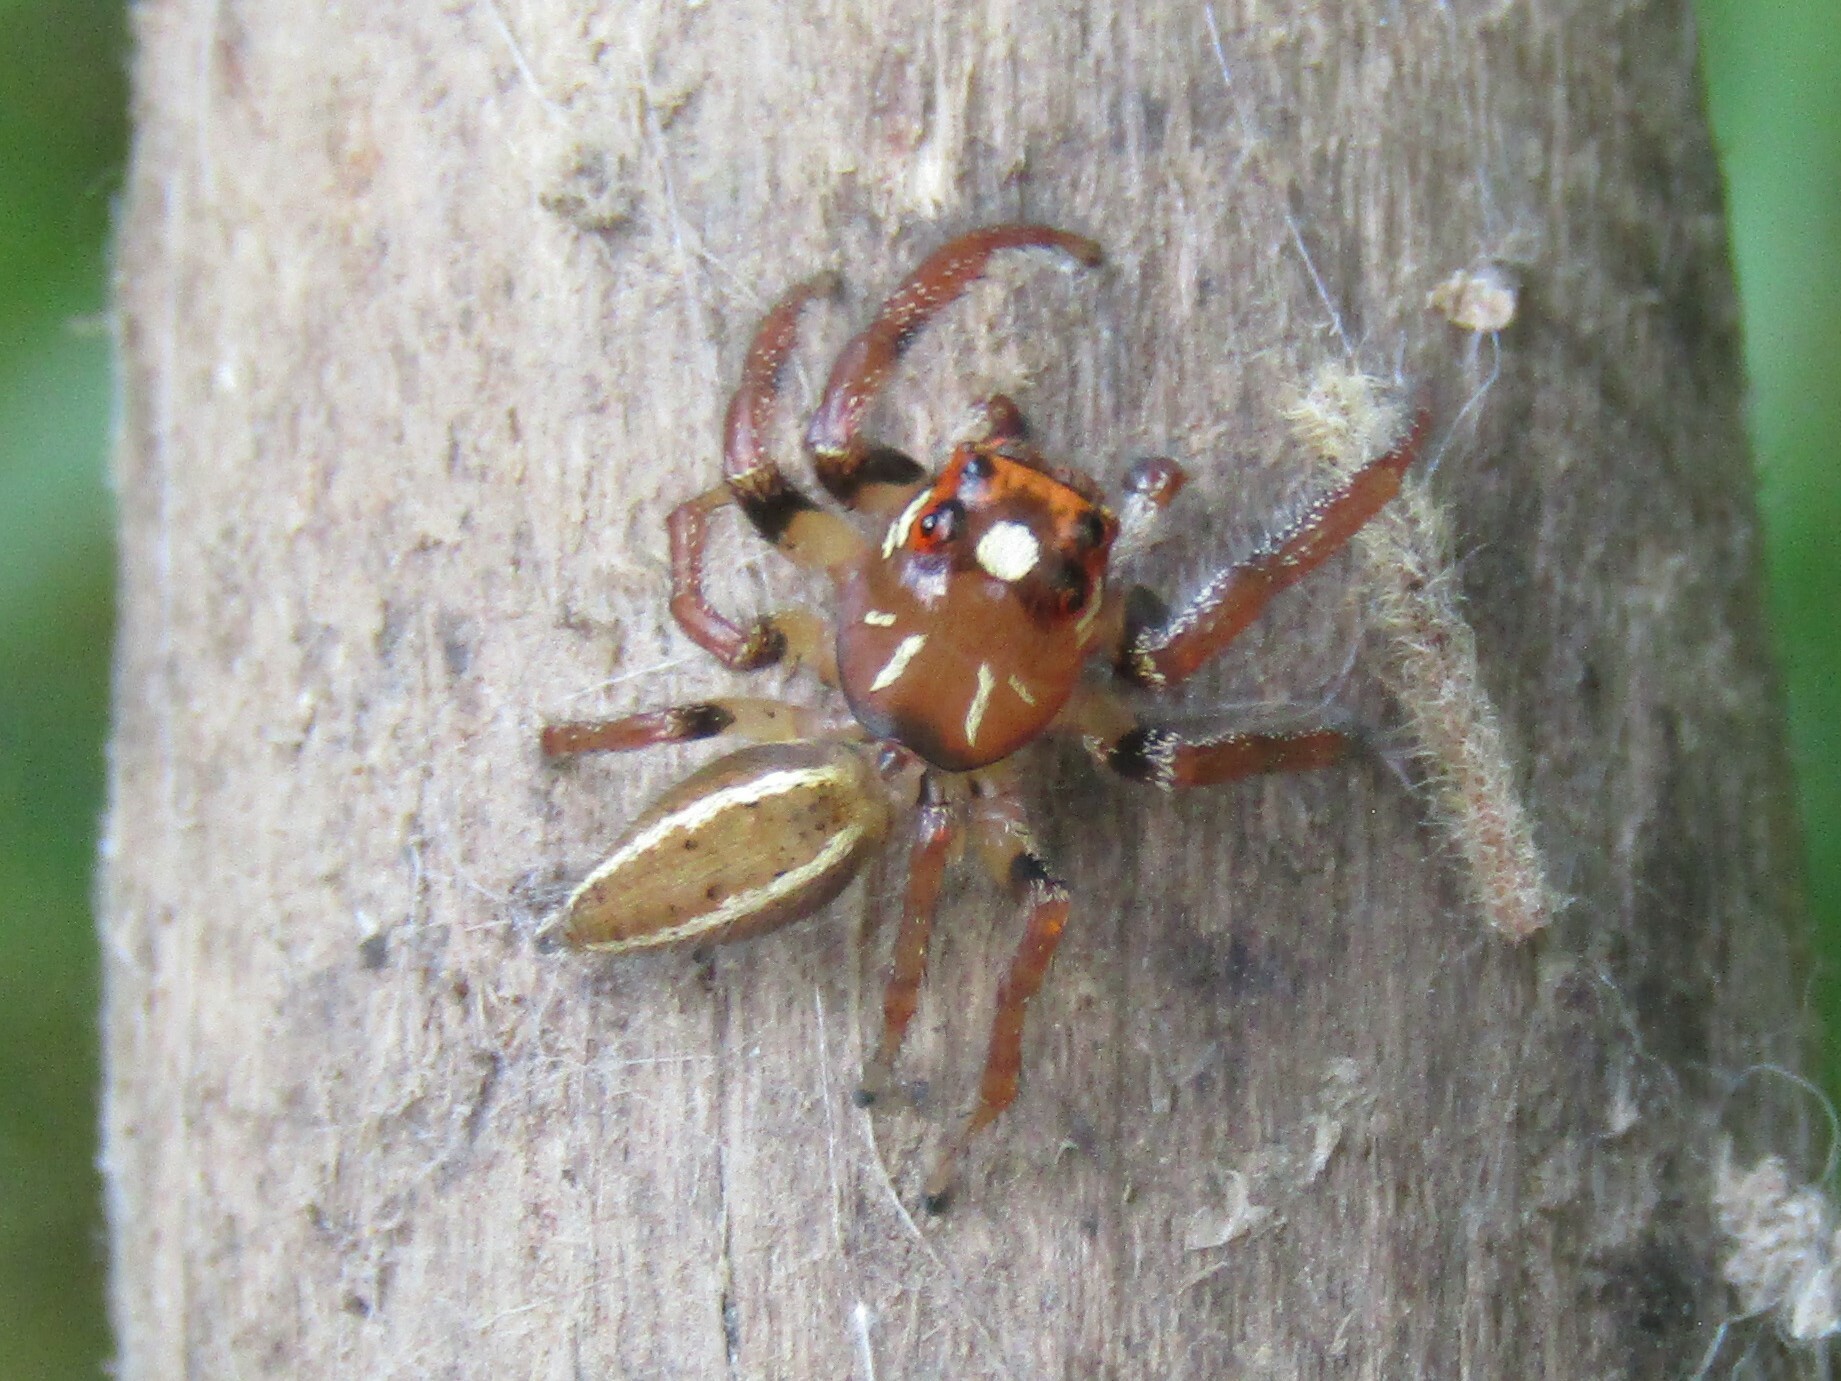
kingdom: Animalia
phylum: Arthropoda
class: Arachnida
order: Araneae
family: Salticidae
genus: Colonus
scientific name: Colonus sylvanus
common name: Jumping spiders
